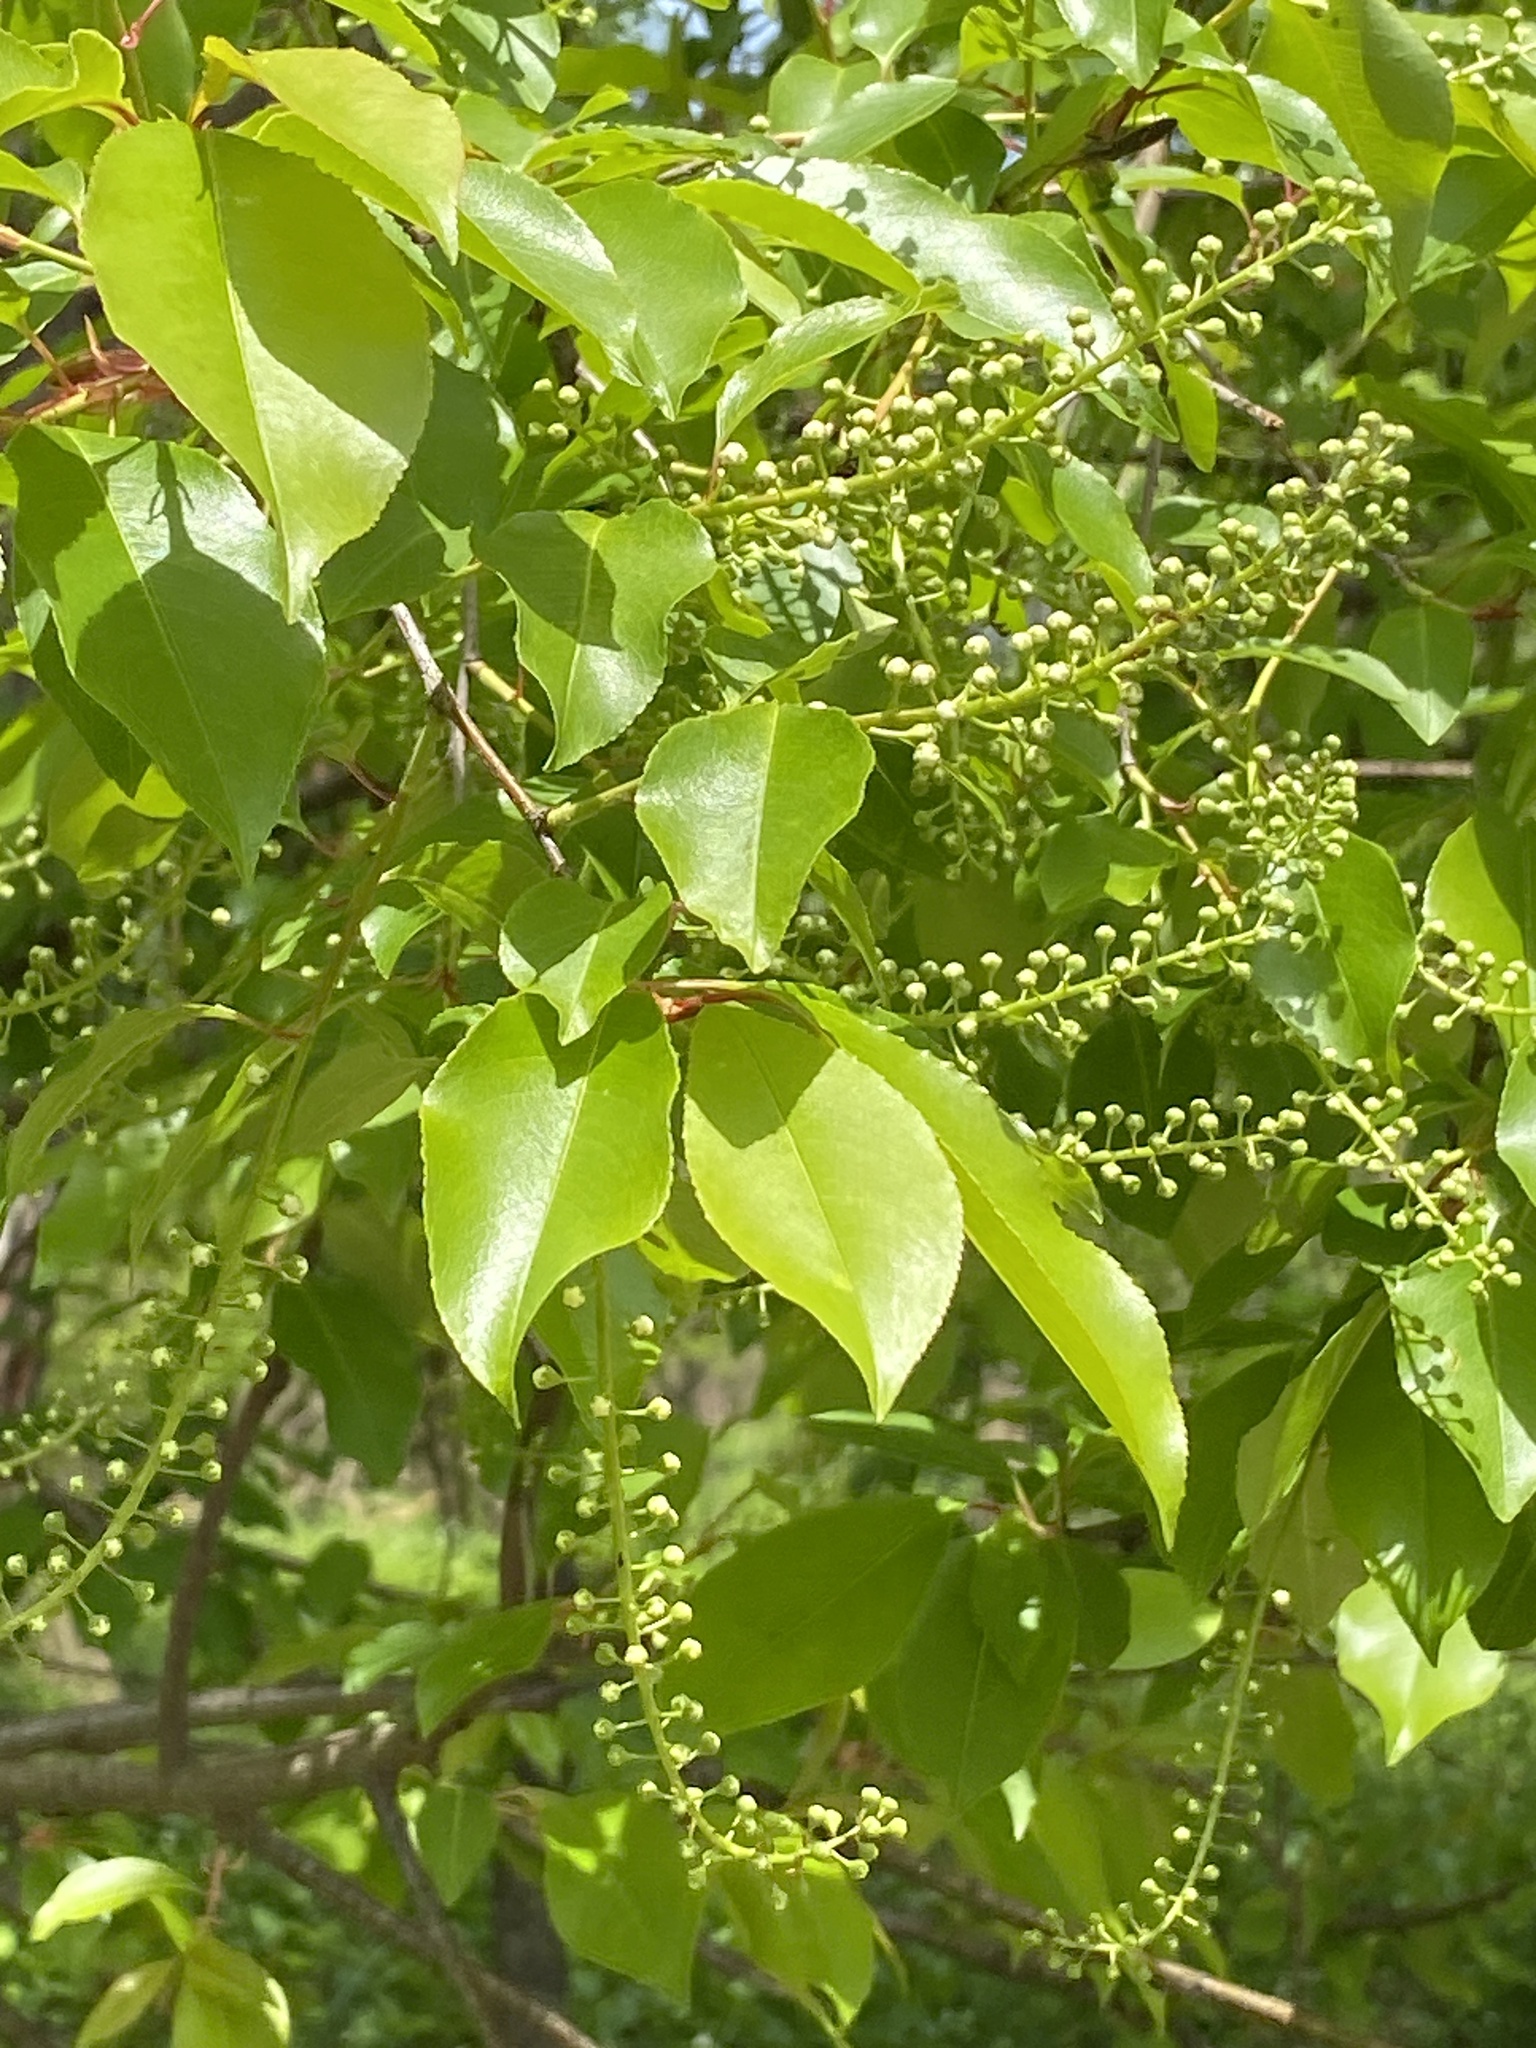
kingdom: Plantae
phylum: Tracheophyta
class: Magnoliopsida
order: Rosales
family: Rosaceae
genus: Prunus
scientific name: Prunus serotina
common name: Black cherry
